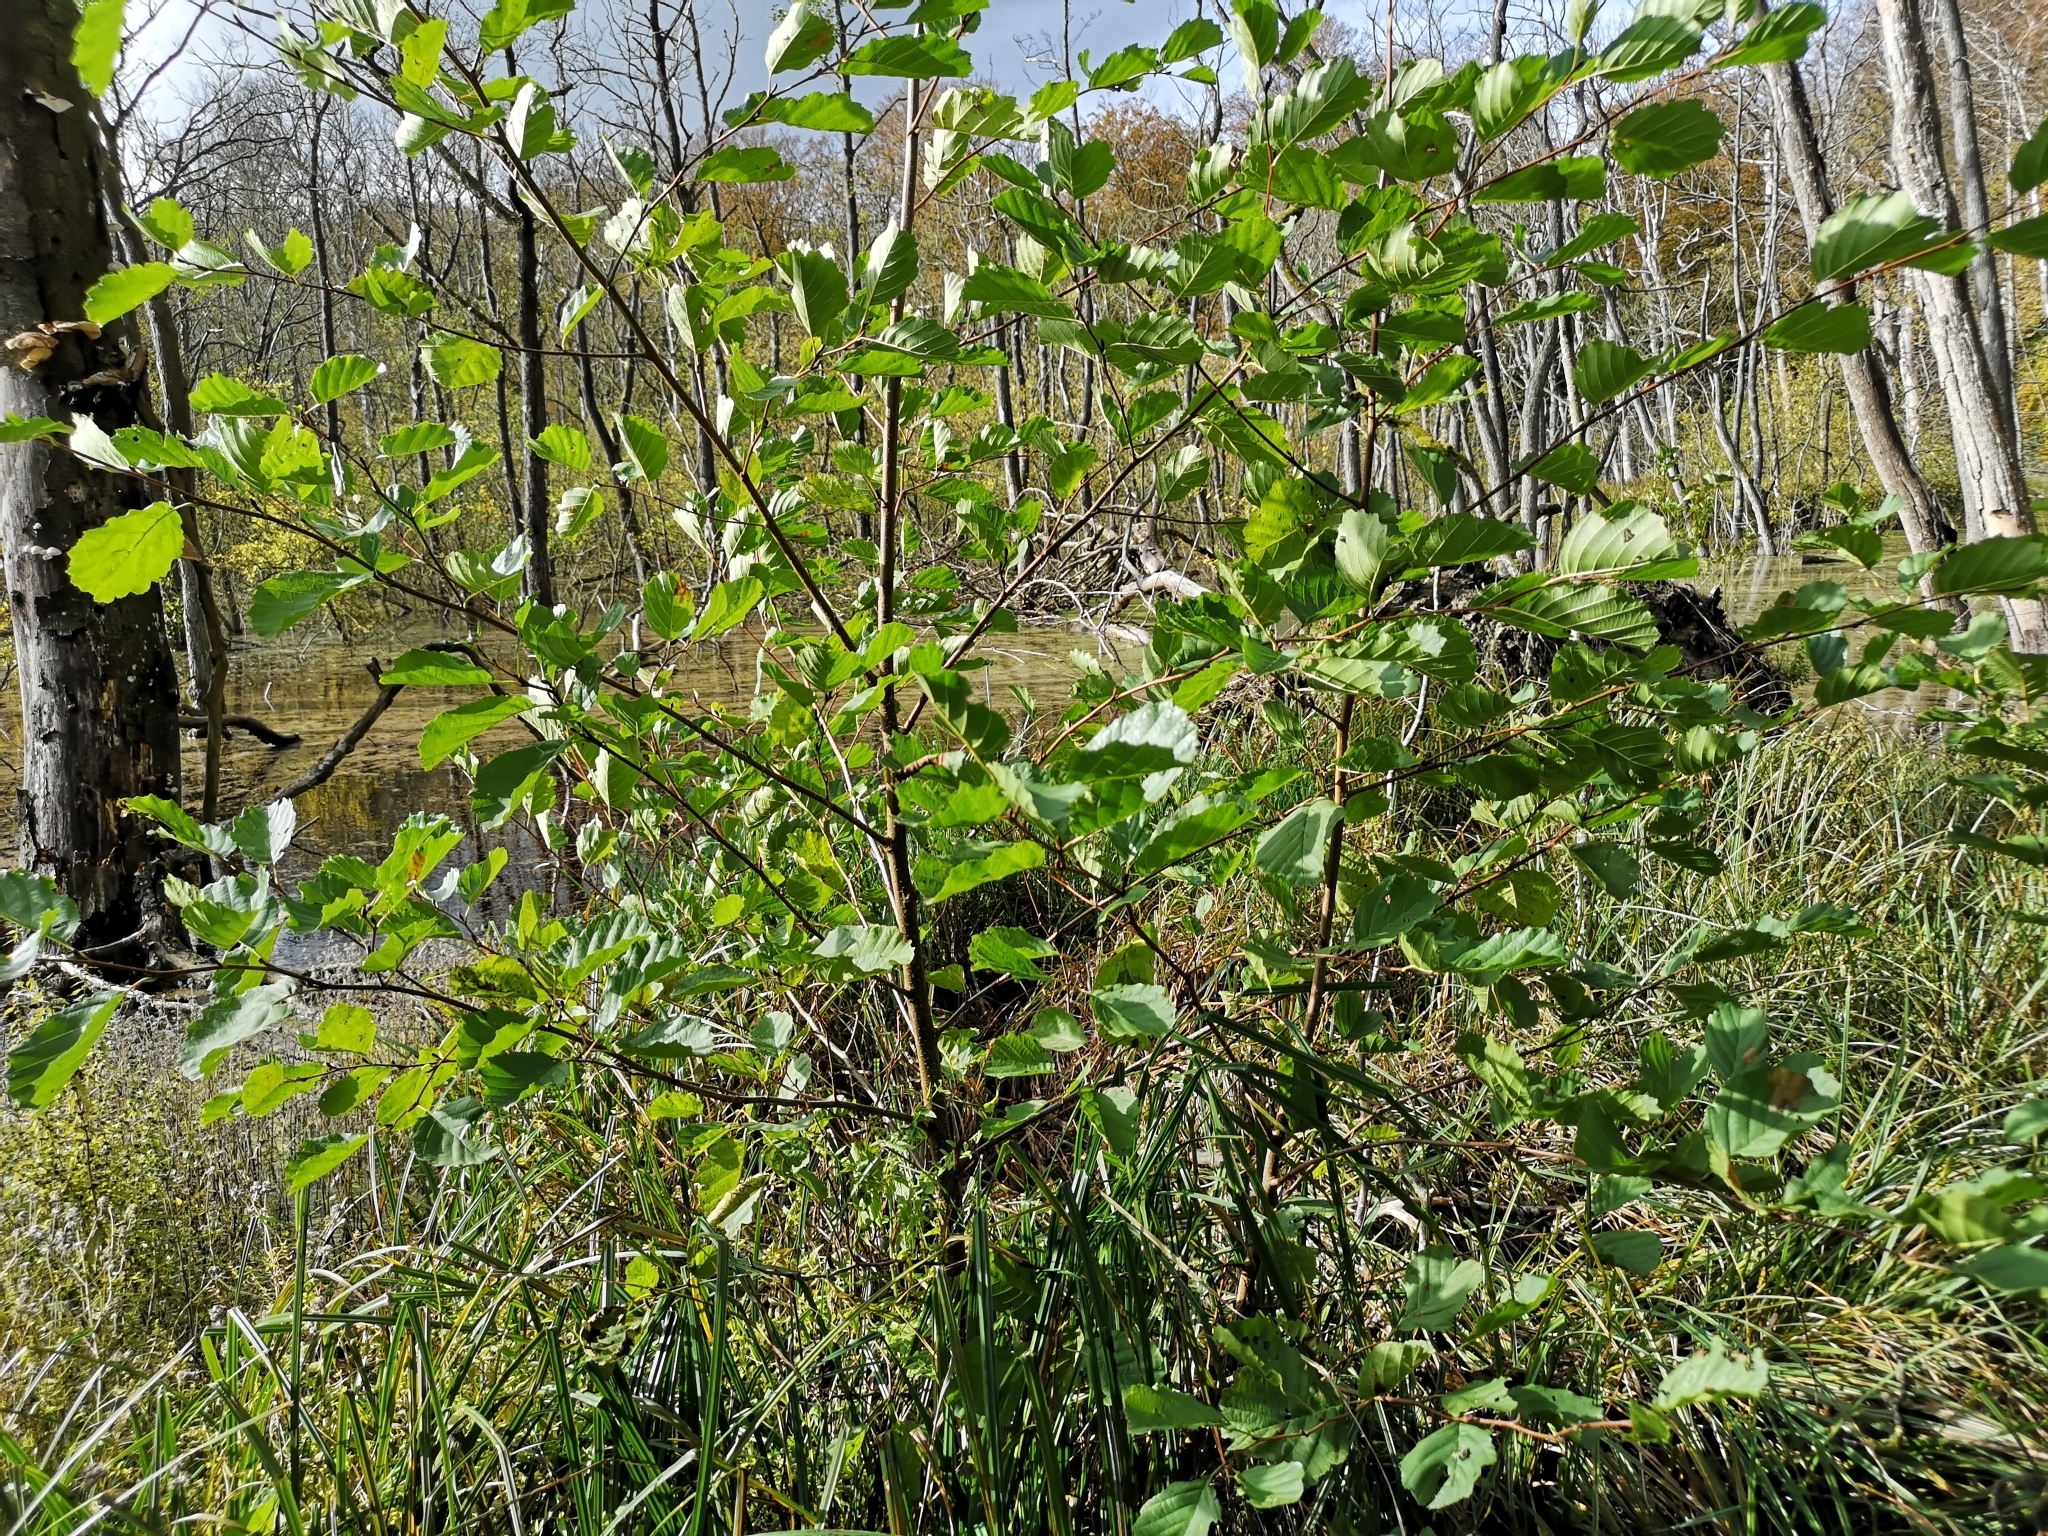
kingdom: Plantae
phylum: Tracheophyta
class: Magnoliopsida
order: Fagales
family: Betulaceae
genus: Alnus
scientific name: Alnus glutinosa
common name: Black alder
